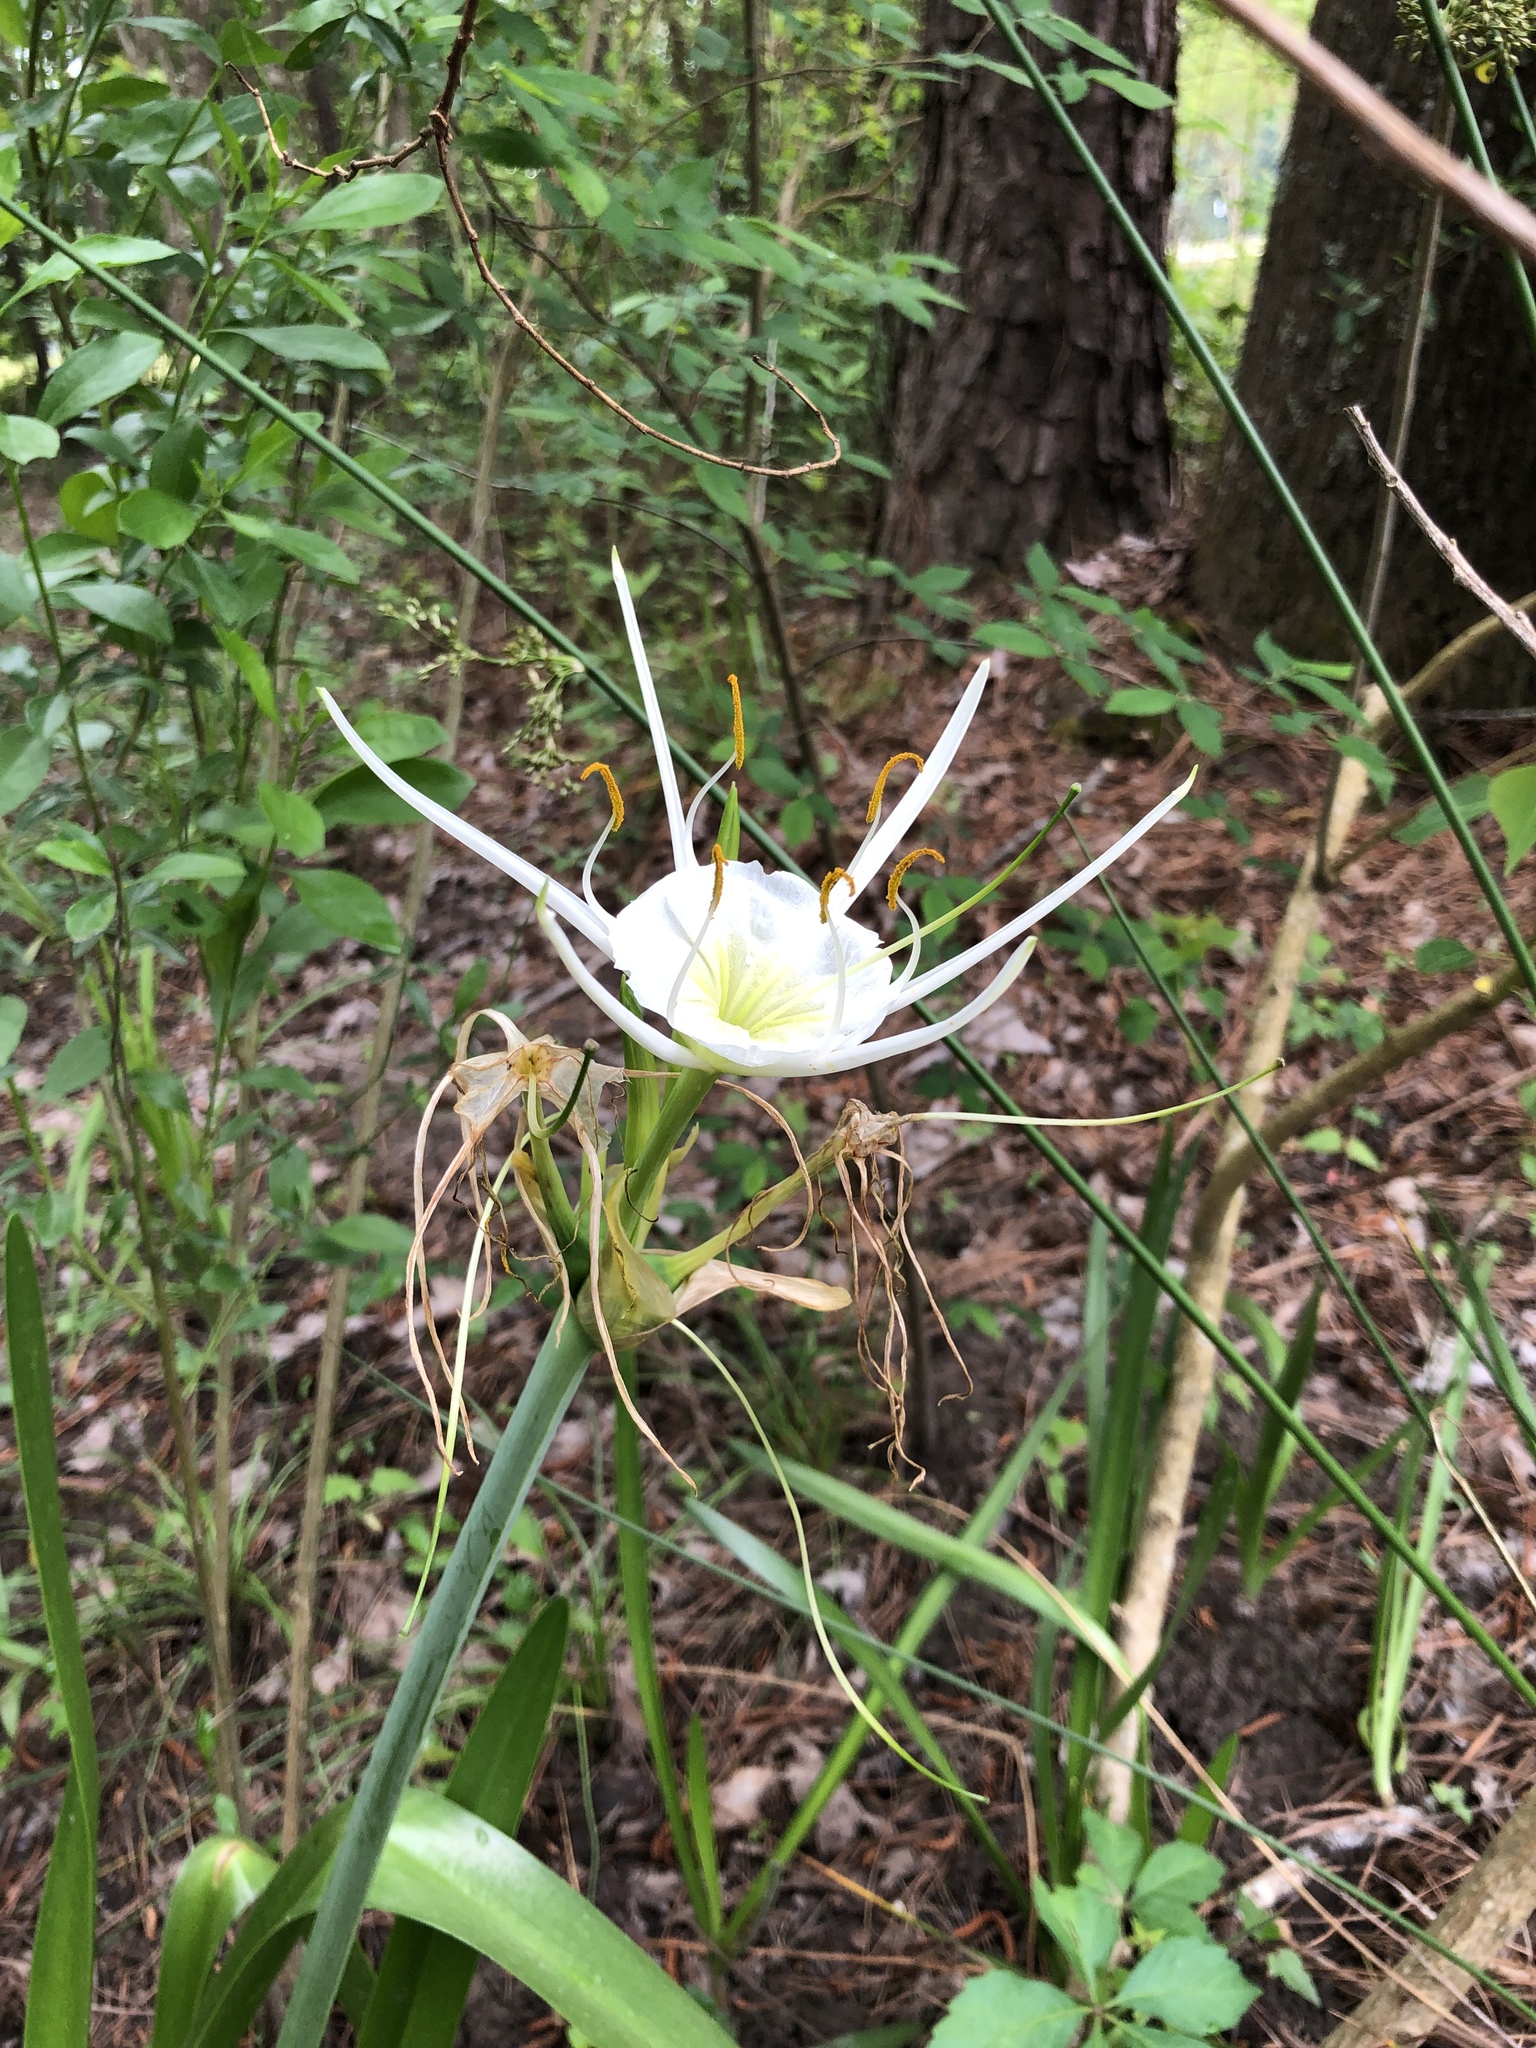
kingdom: Plantae
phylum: Tracheophyta
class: Liliopsida
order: Asparagales
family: Amaryllidaceae
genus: Hymenocallis
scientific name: Hymenocallis liriosme
